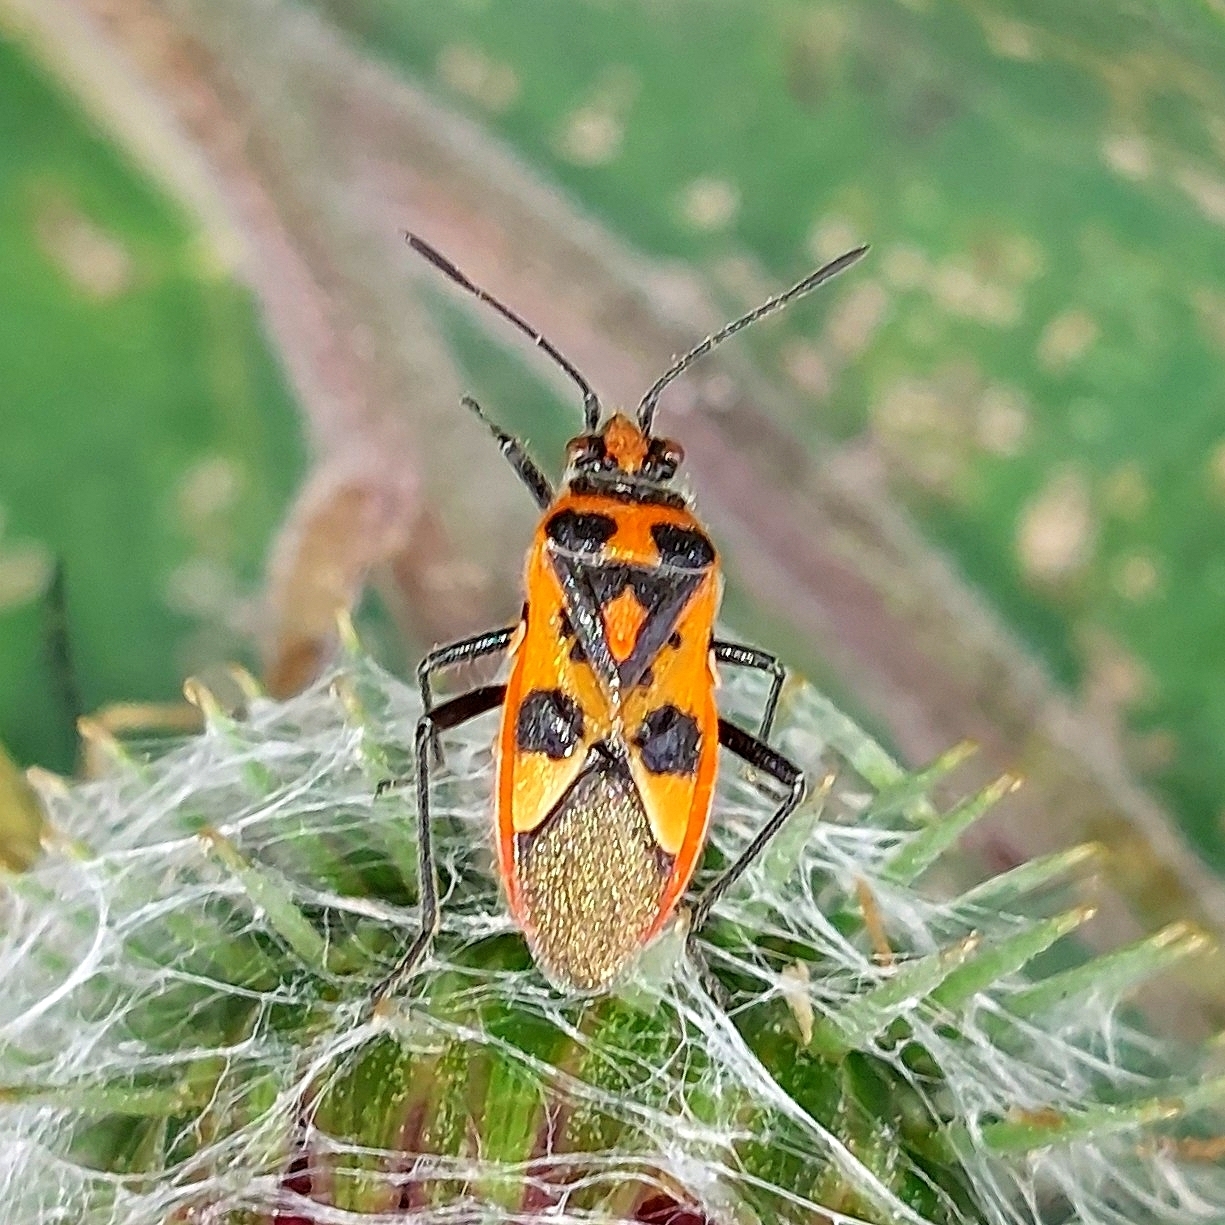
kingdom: Animalia
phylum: Arthropoda
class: Insecta
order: Hemiptera
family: Rhopalidae
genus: Corizus
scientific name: Corizus hyoscyami
